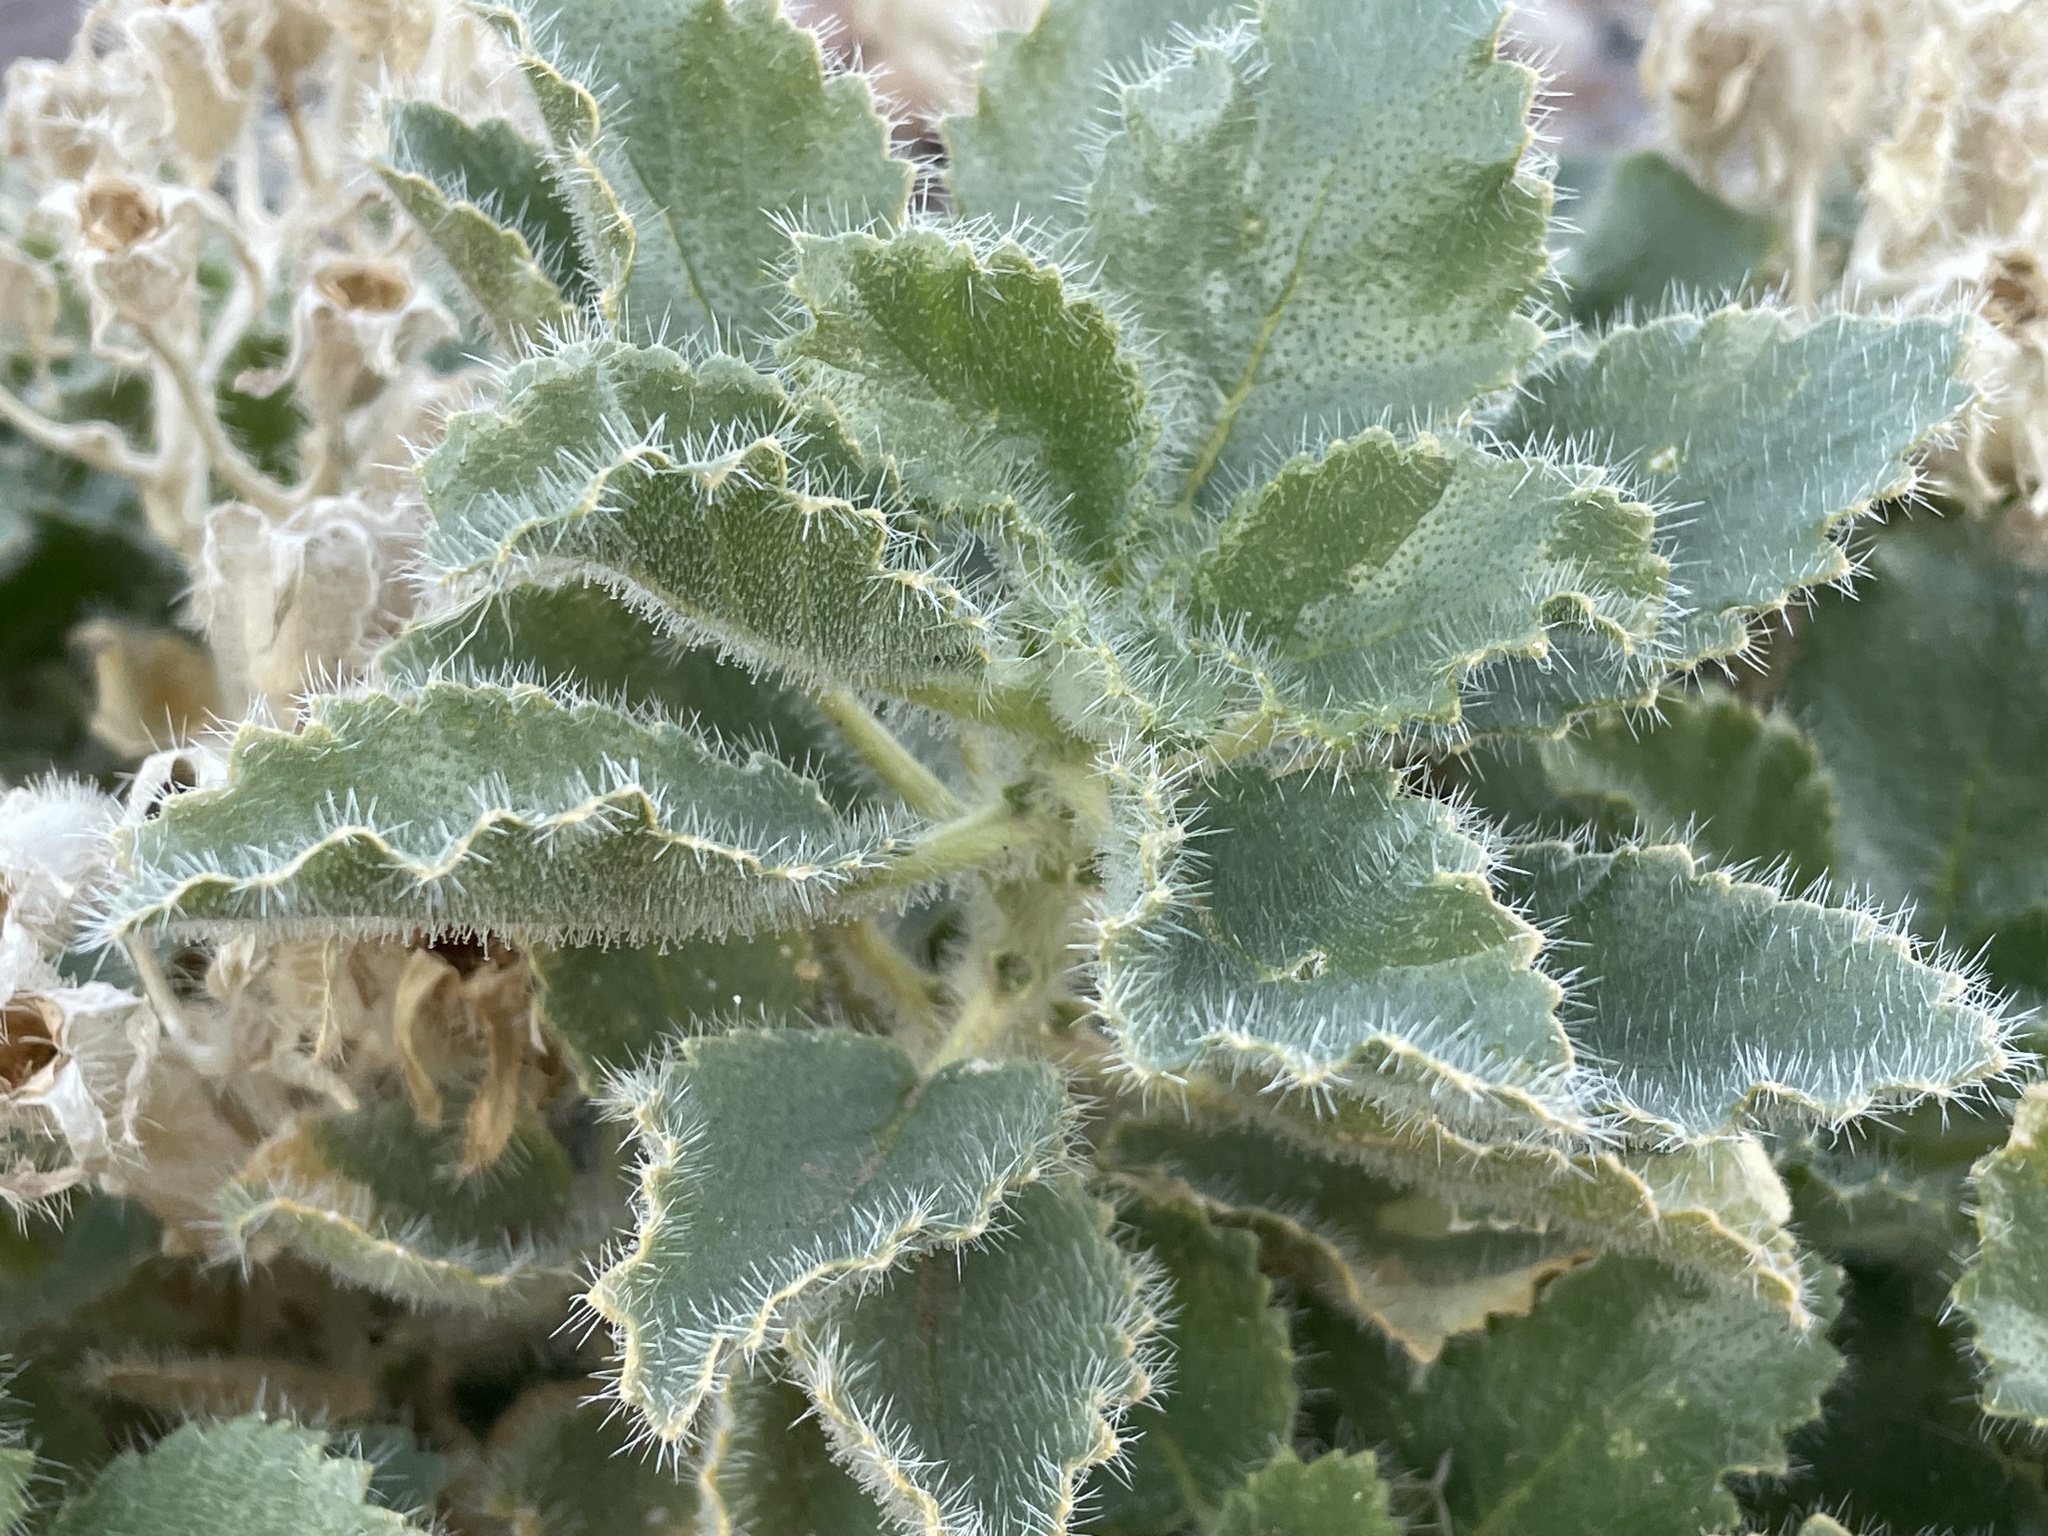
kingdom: Plantae
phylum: Tracheophyta
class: Magnoliopsida
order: Cornales
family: Loasaceae
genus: Eucnide
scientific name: Eucnide urens
